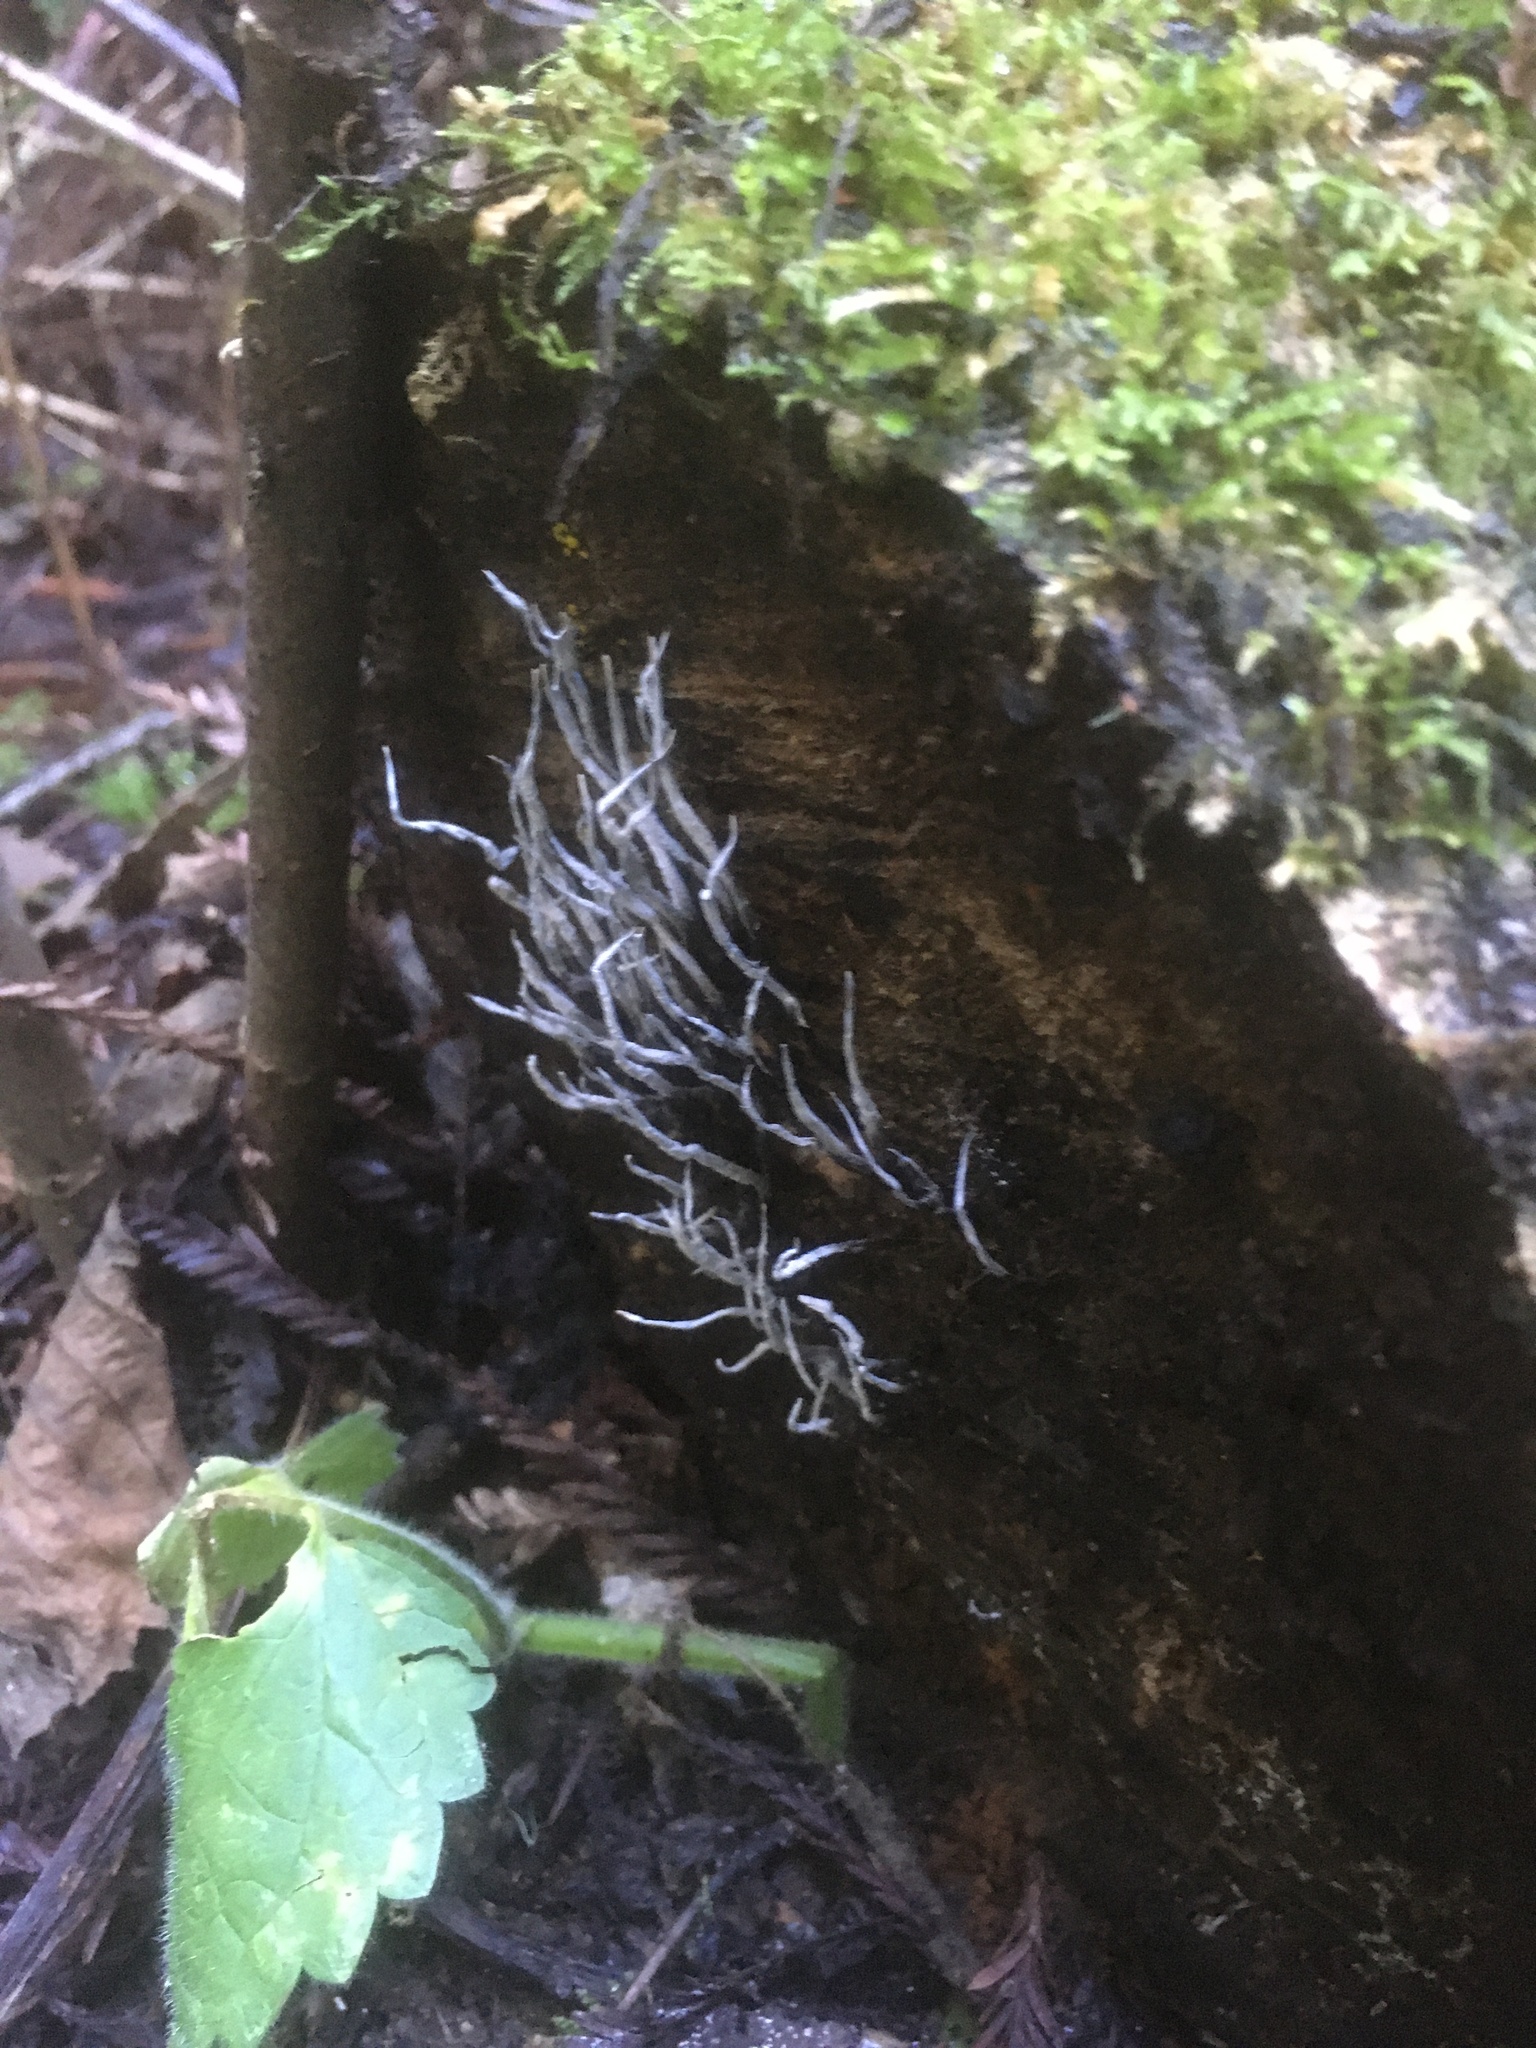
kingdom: Fungi
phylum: Ascomycota
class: Sordariomycetes
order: Xylariales
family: Xylariaceae
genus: Xylaria
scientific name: Xylaria hypoxylon
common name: Candle-snuff fungus
